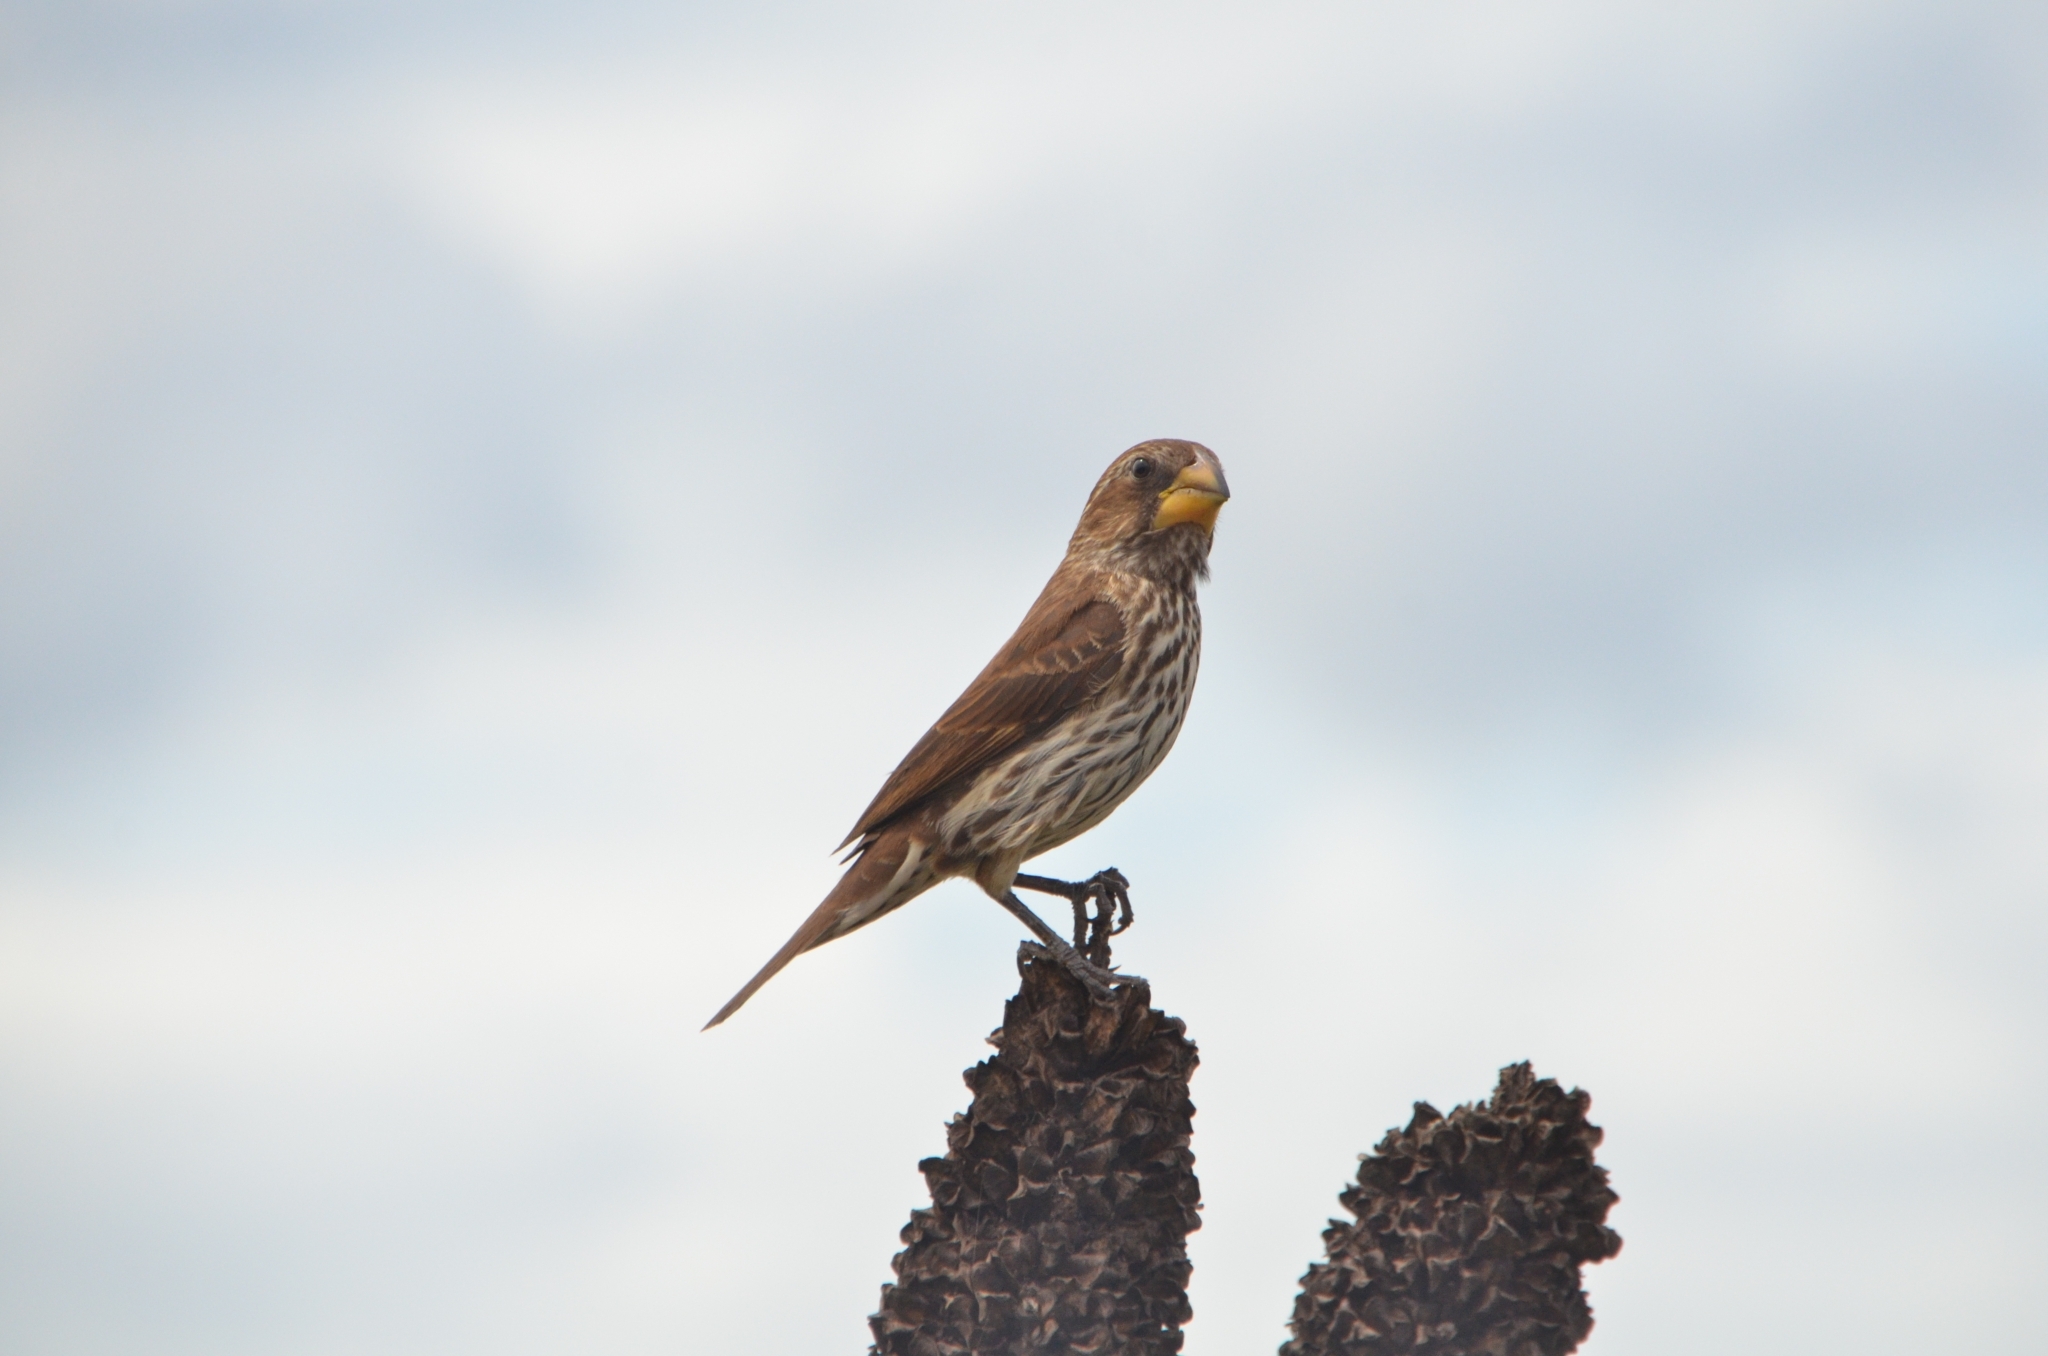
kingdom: Animalia
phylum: Chordata
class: Aves
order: Passeriformes
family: Ploceidae
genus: Amblyospiza
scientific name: Amblyospiza albifrons
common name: Thick-billed weaver
